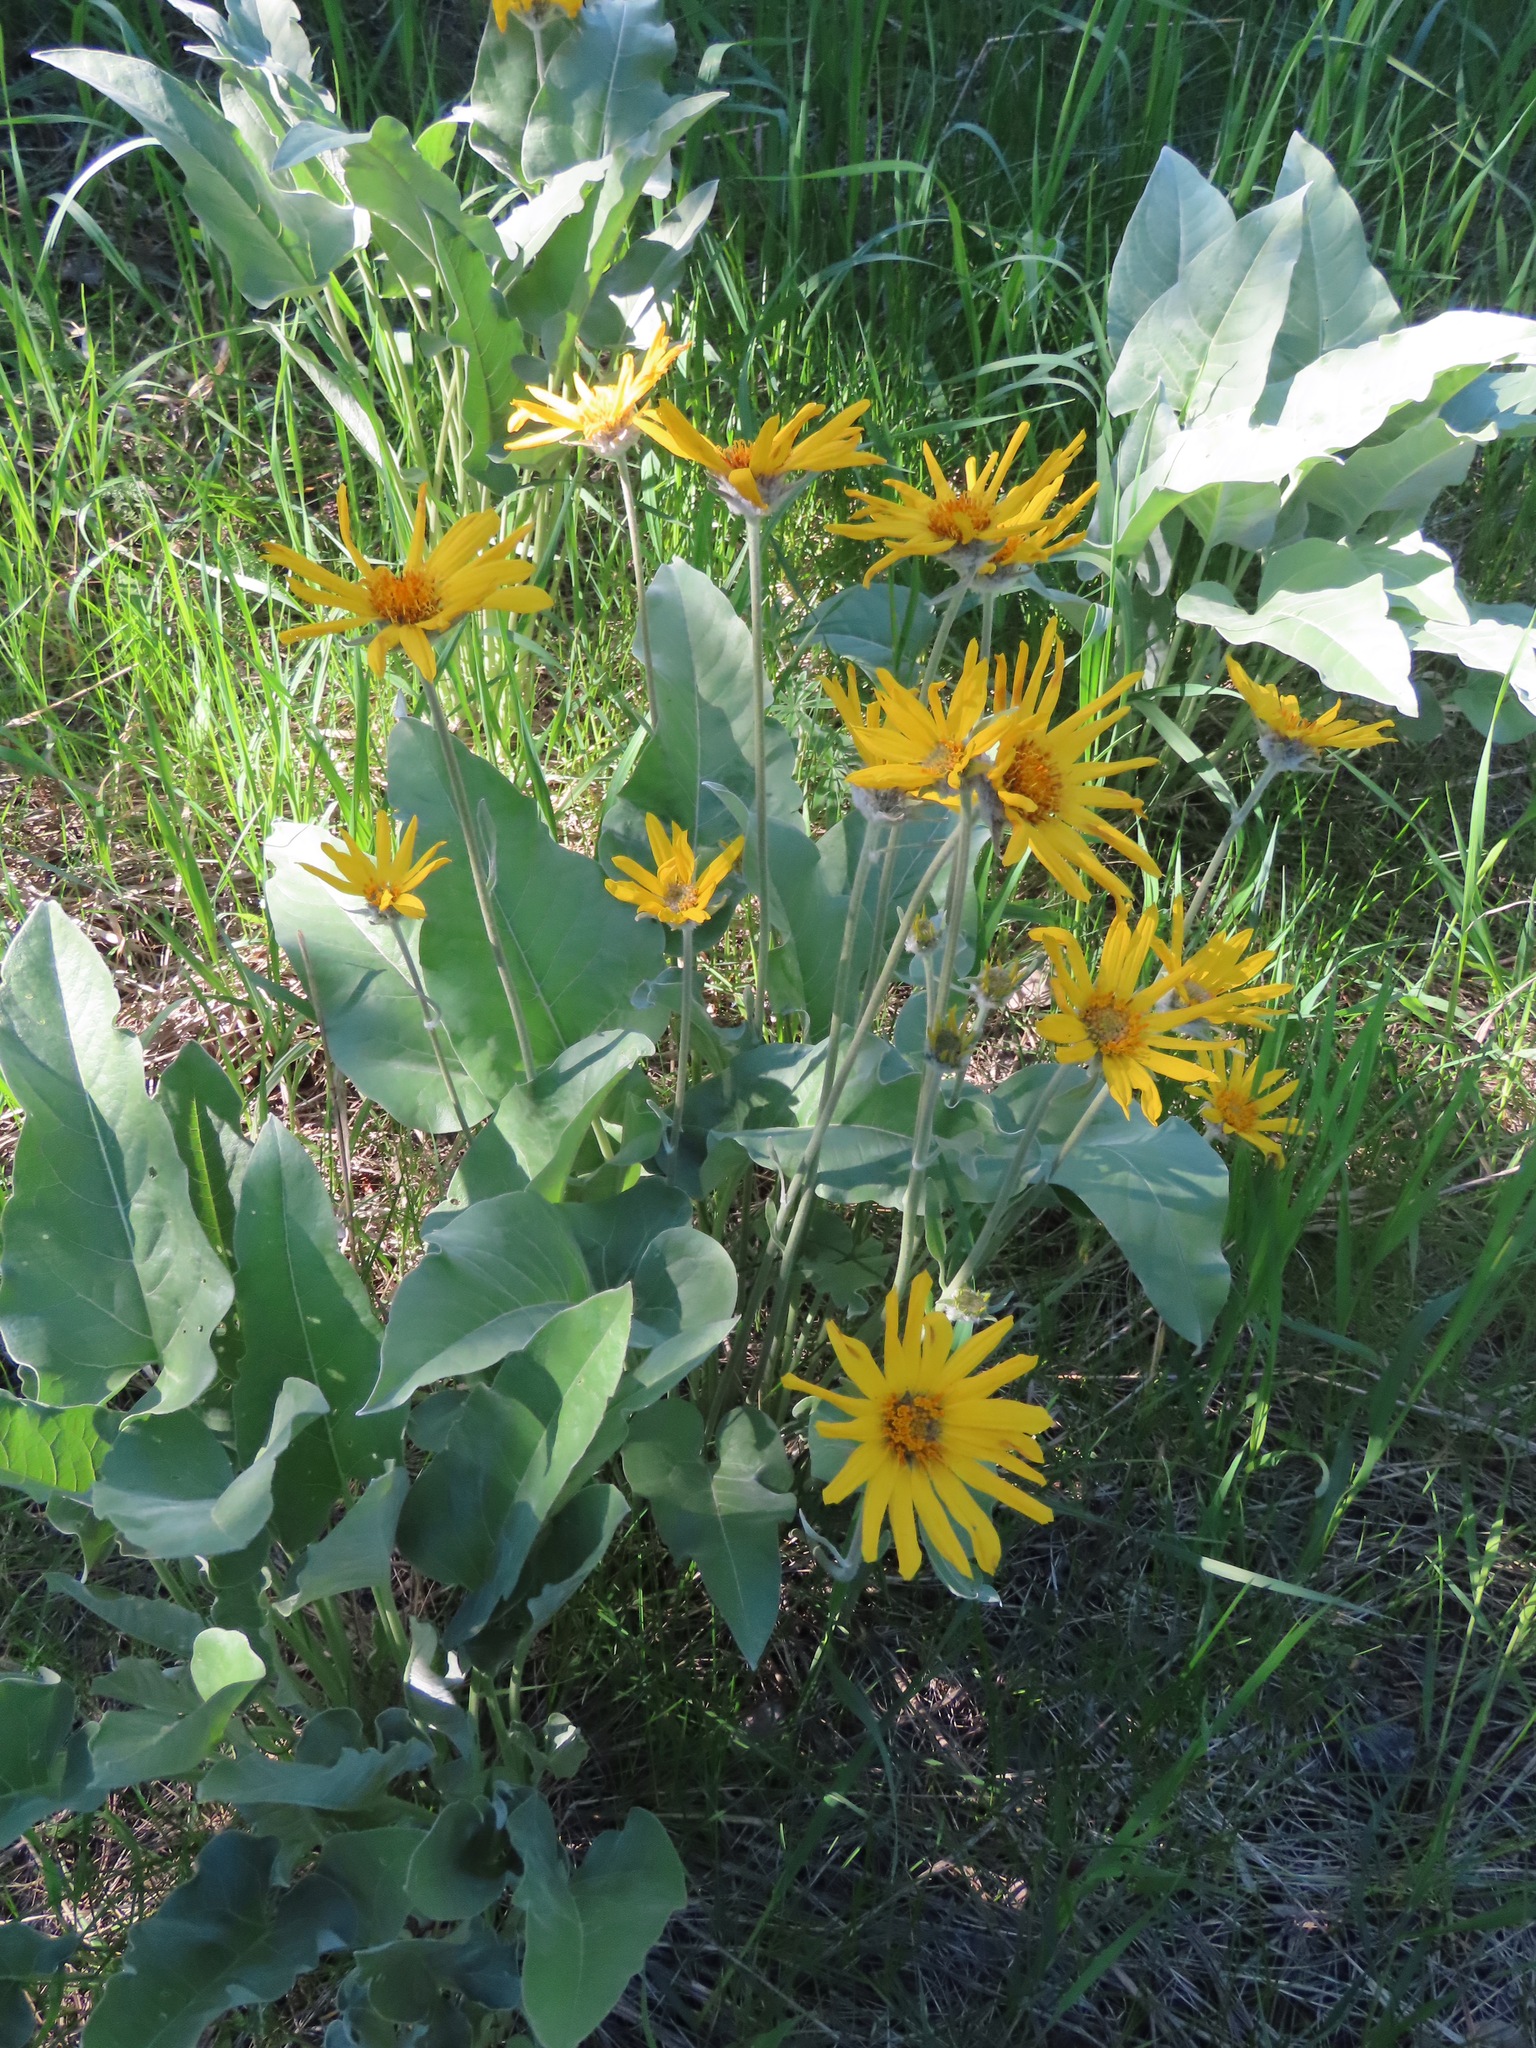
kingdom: Plantae
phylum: Tracheophyta
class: Magnoliopsida
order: Asterales
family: Asteraceae
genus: Wyethia
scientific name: Wyethia sagittata
